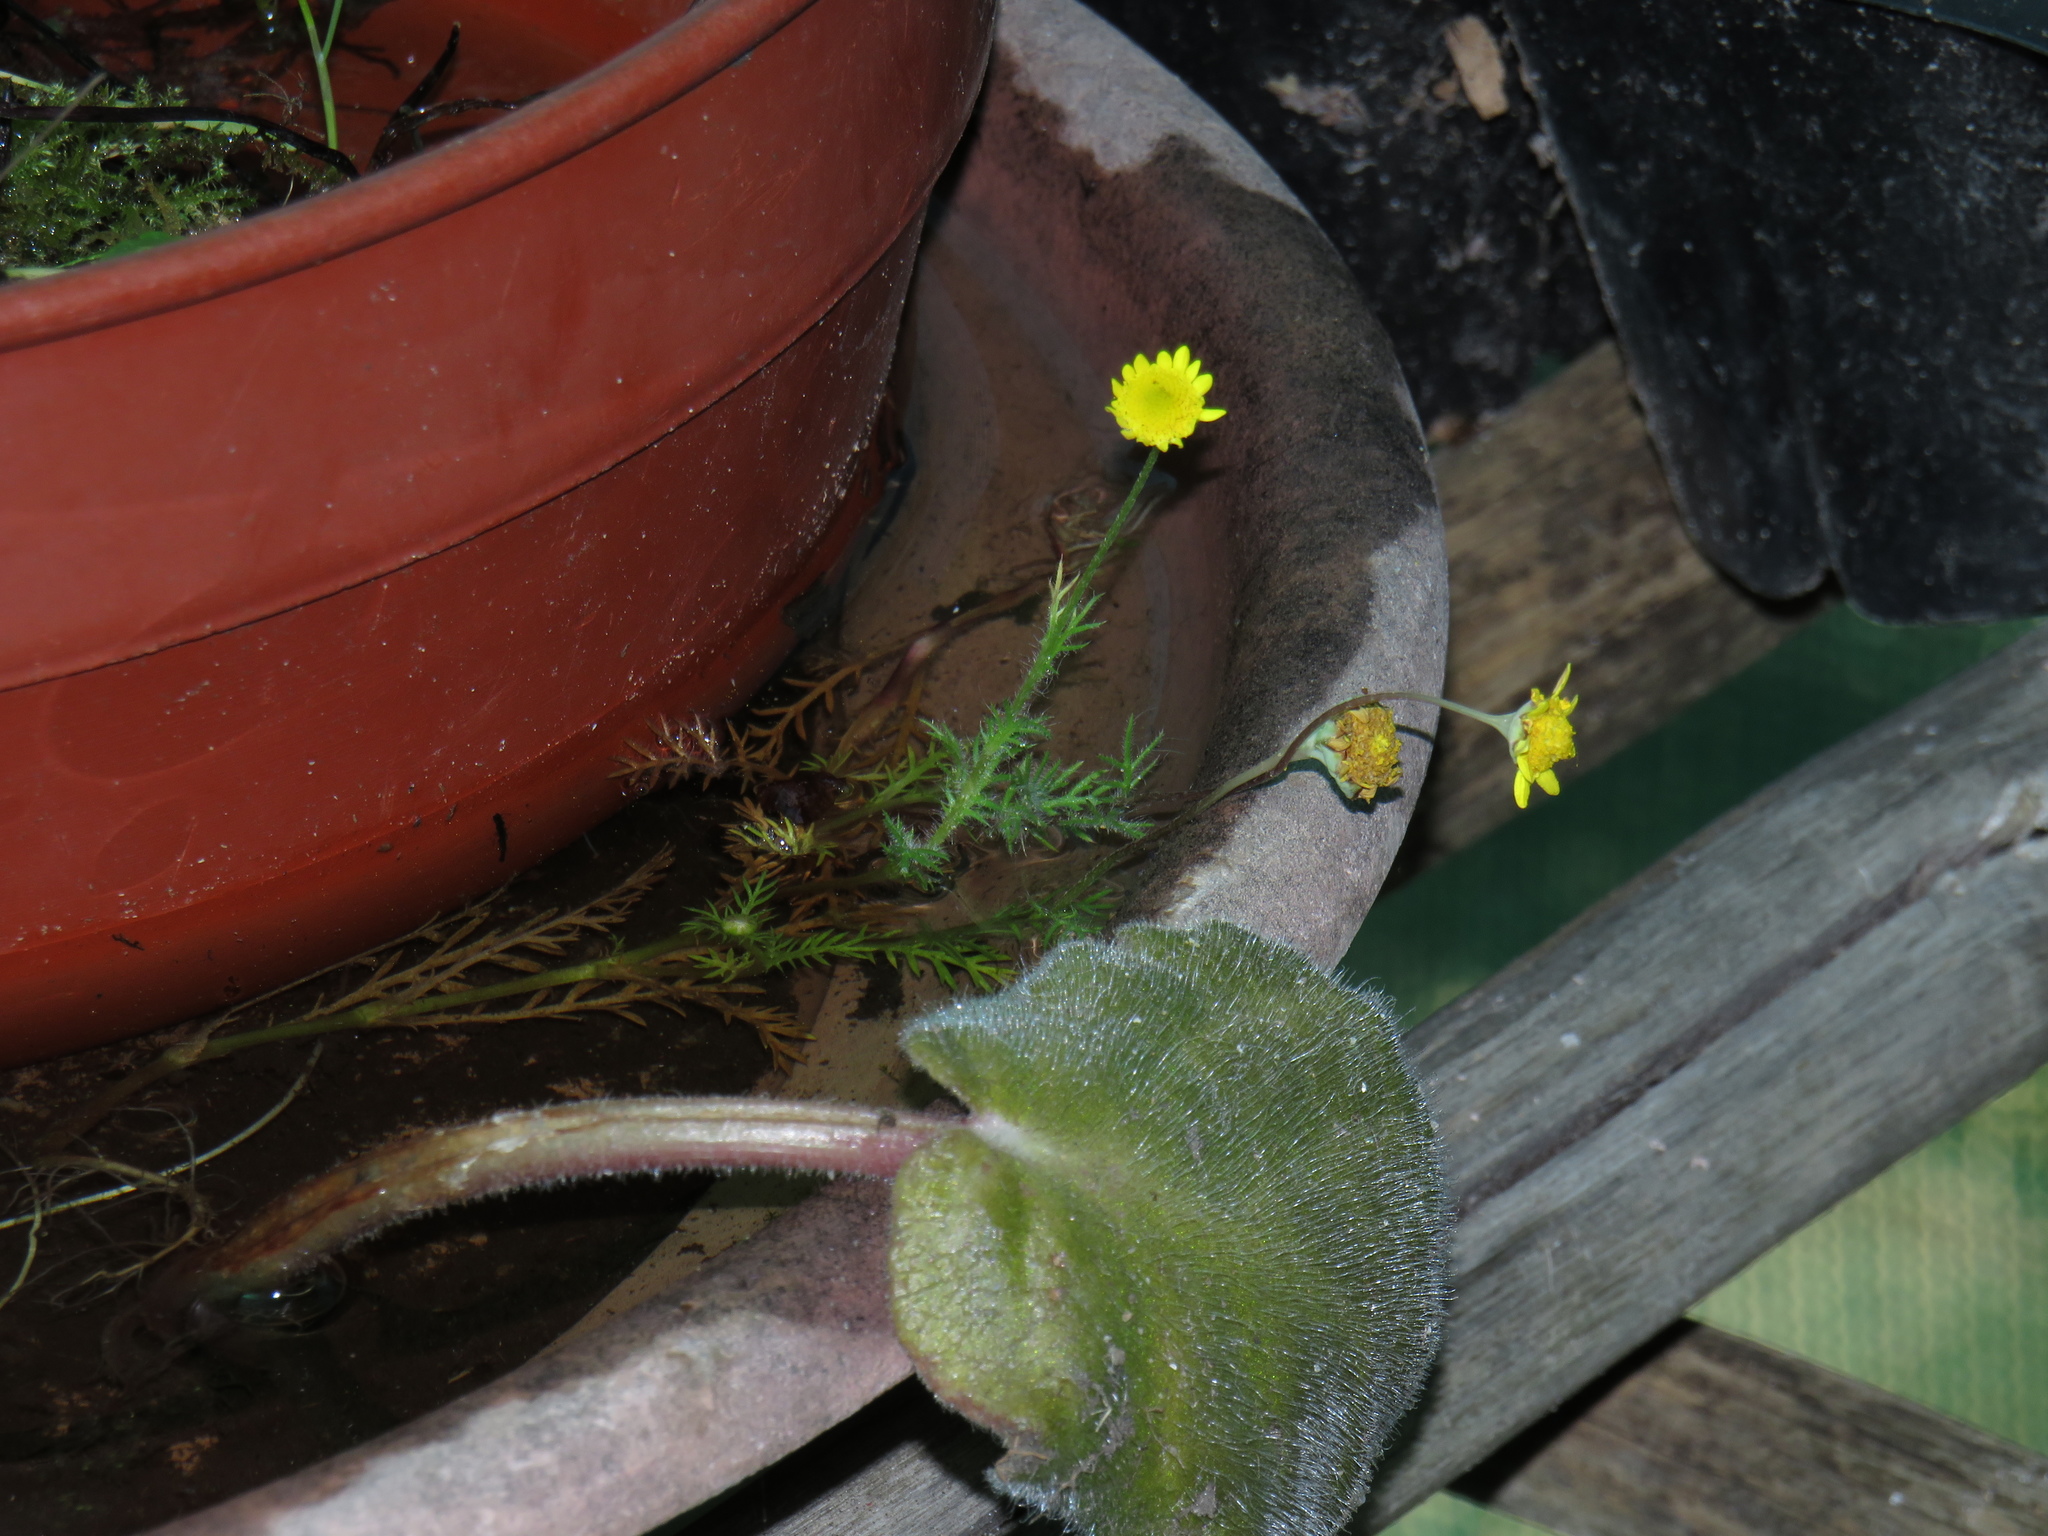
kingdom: Plantae
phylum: Tracheophyta
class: Magnoliopsida
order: Asterales
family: Asteraceae
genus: Cotula
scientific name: Cotula pruinosa
